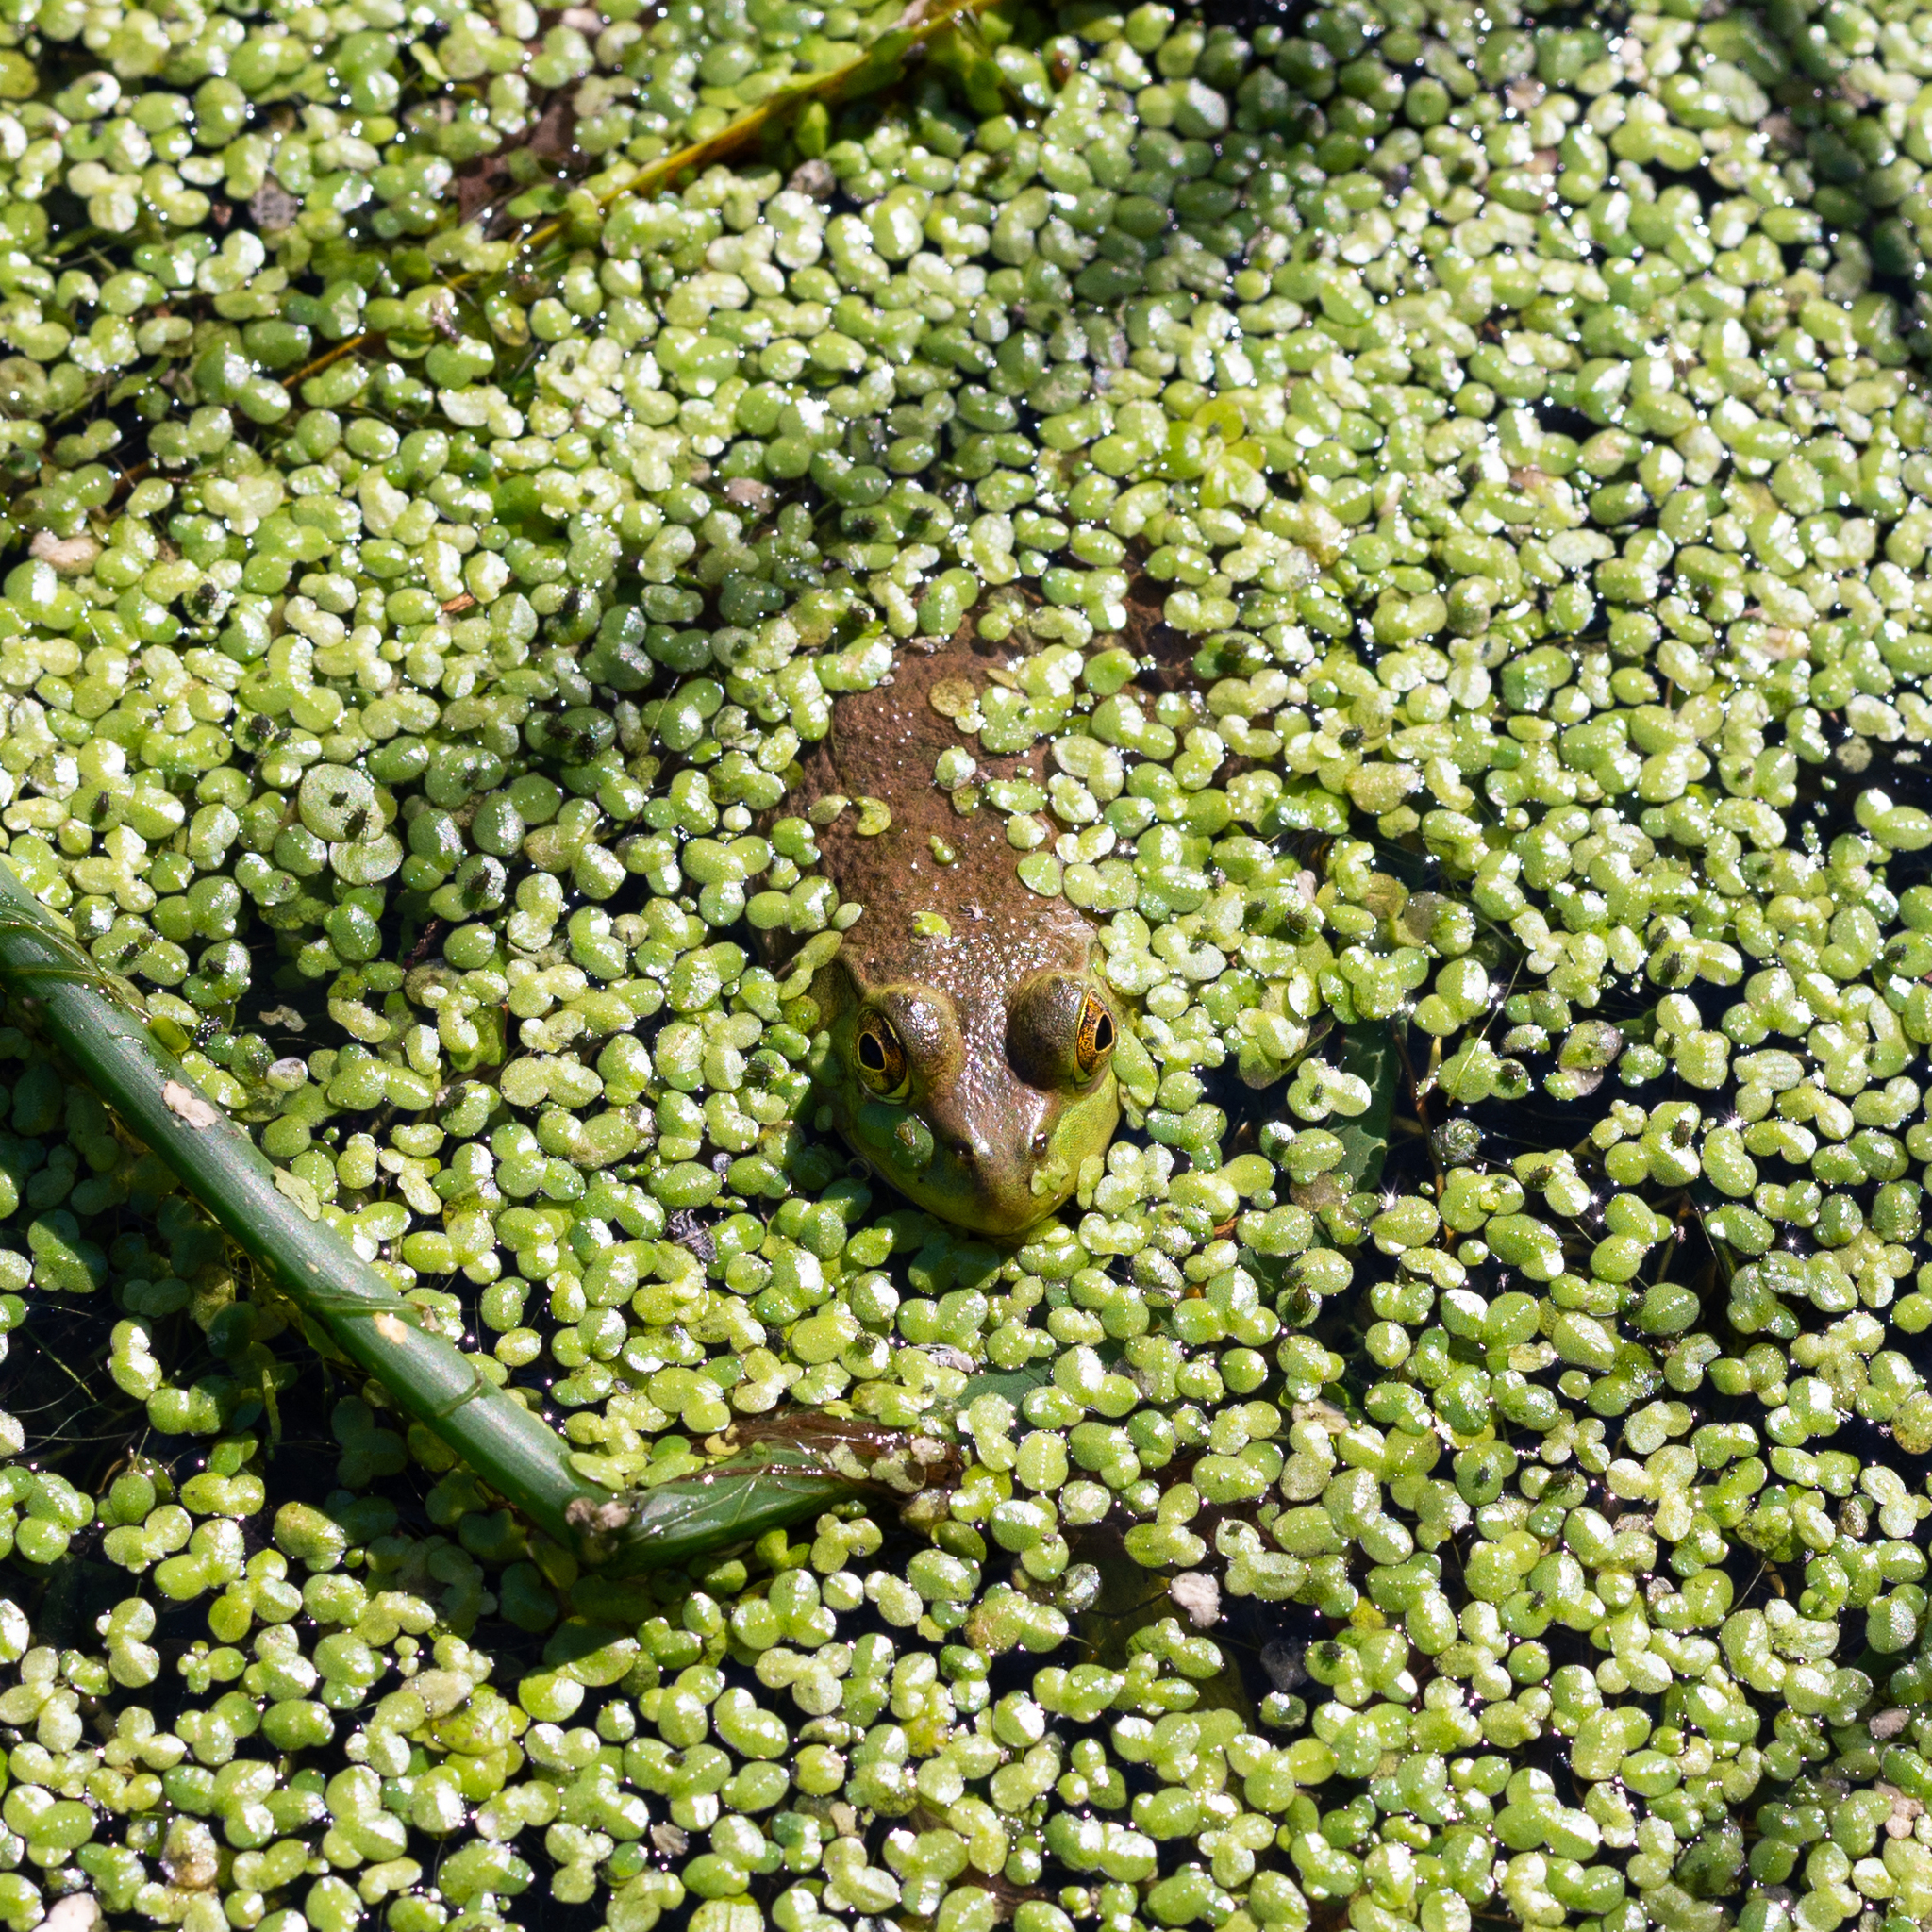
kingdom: Animalia
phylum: Chordata
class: Amphibia
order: Anura
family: Ranidae
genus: Lithobates
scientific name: Lithobates catesbeianus
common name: American bullfrog
